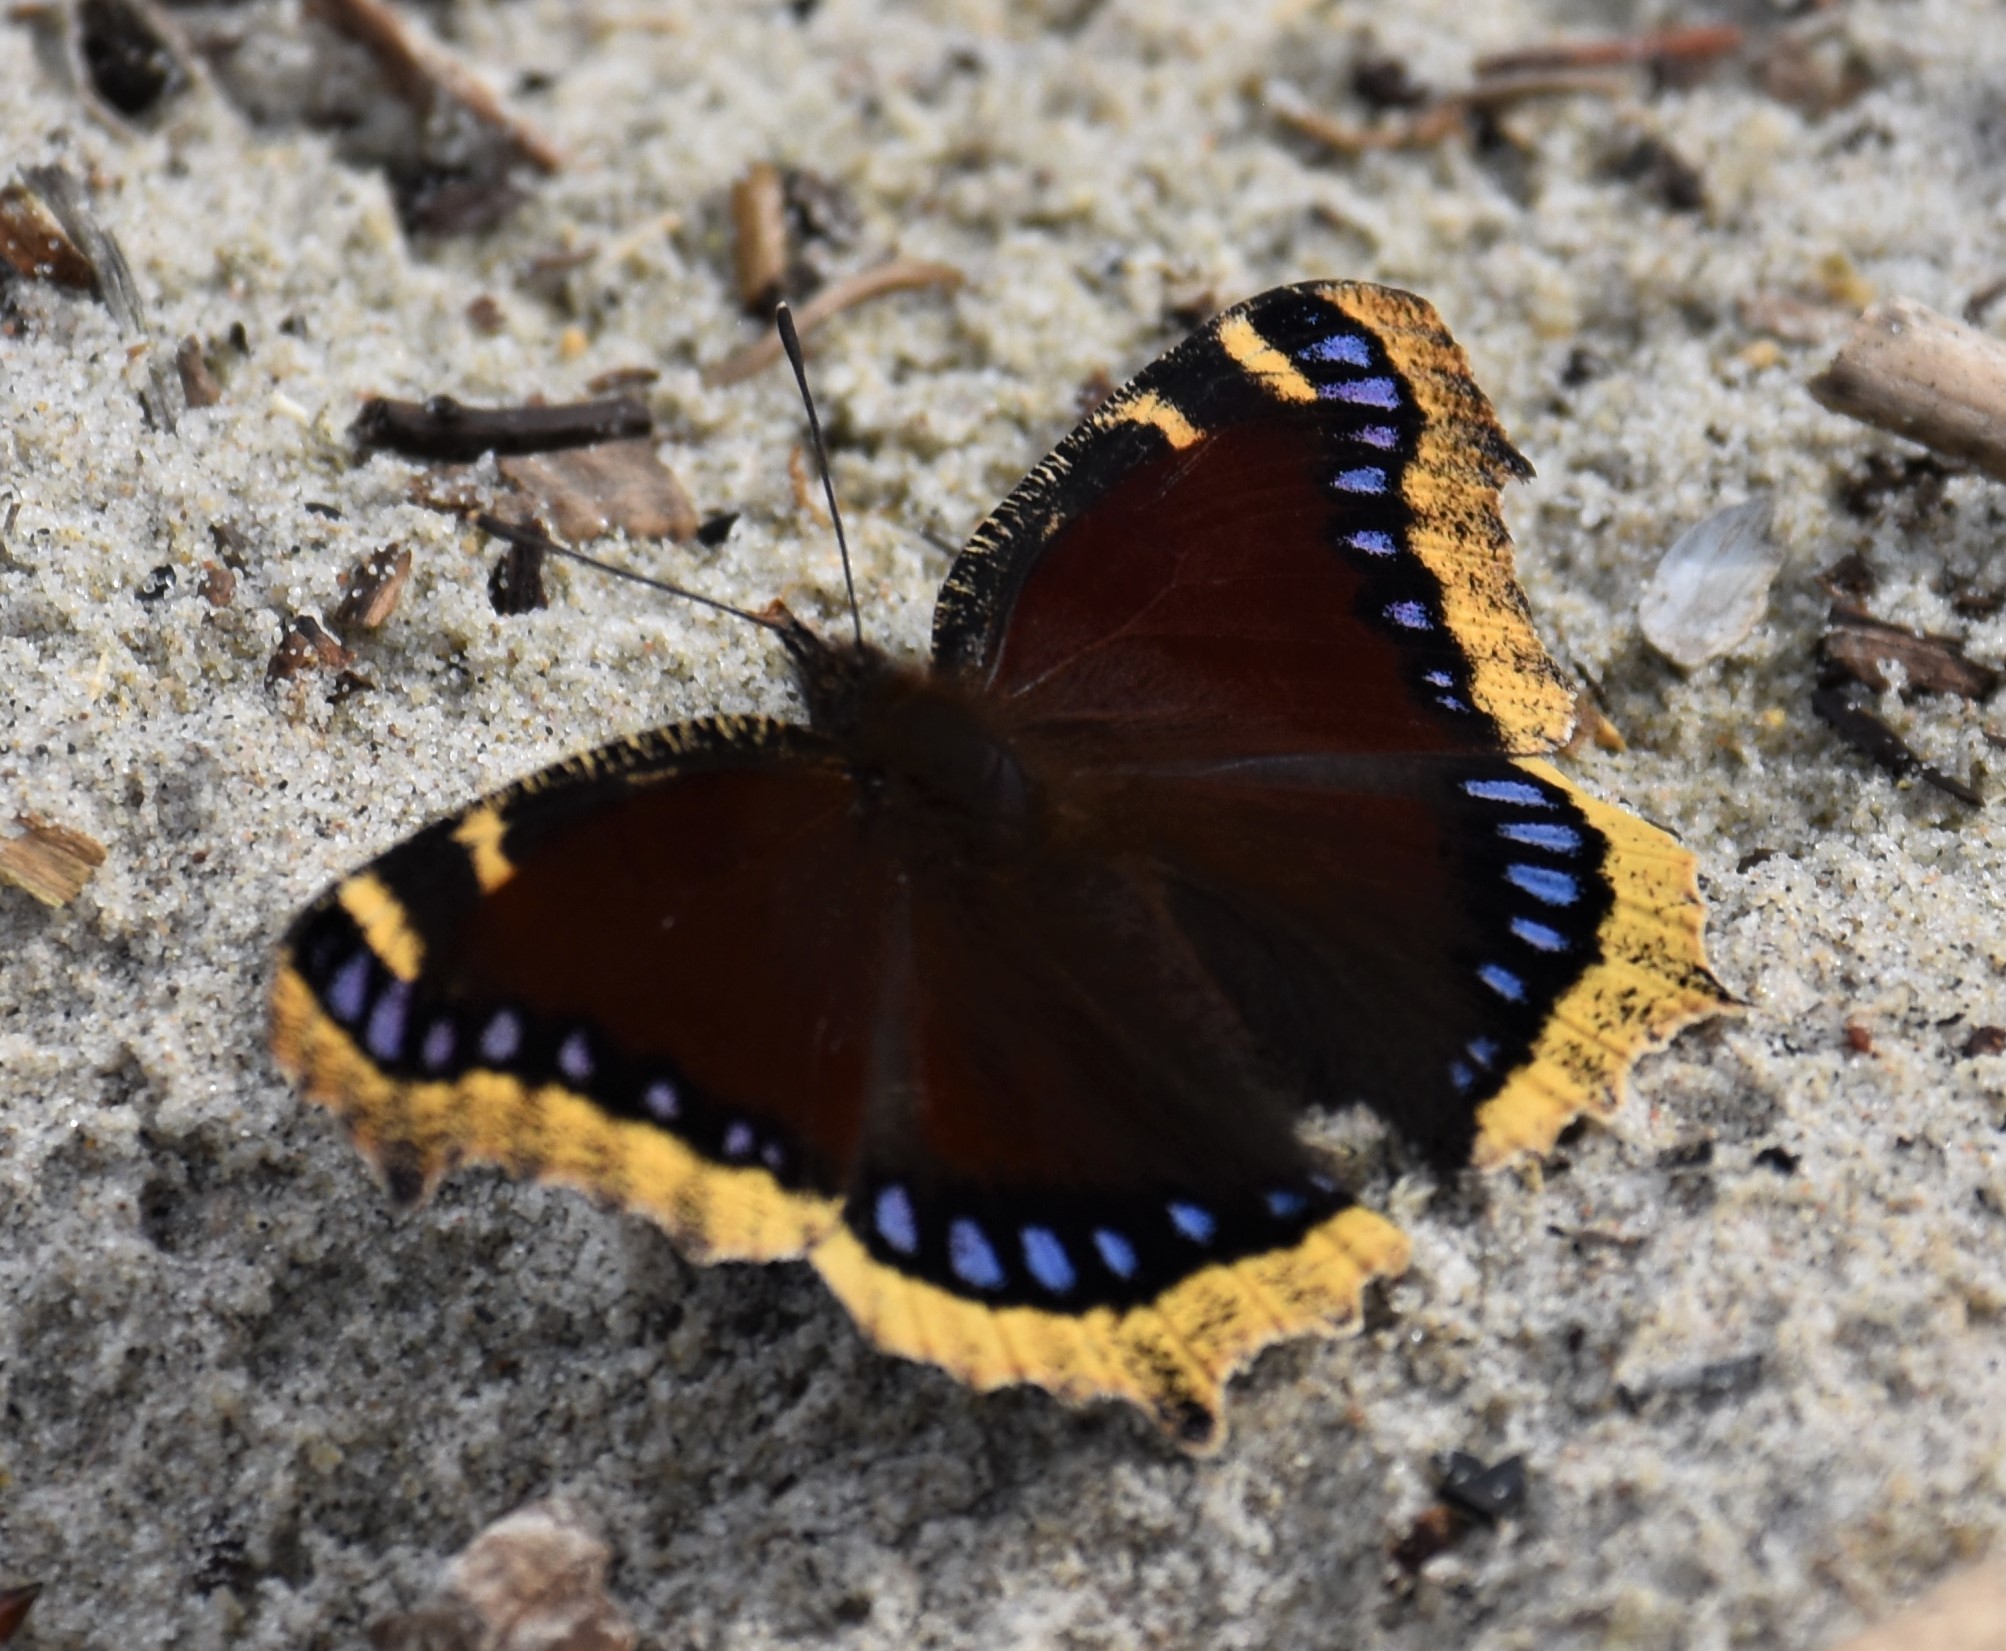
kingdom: Animalia
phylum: Arthropoda
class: Insecta
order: Lepidoptera
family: Nymphalidae
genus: Nymphalis
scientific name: Nymphalis antiopa
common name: Camberwell beauty
